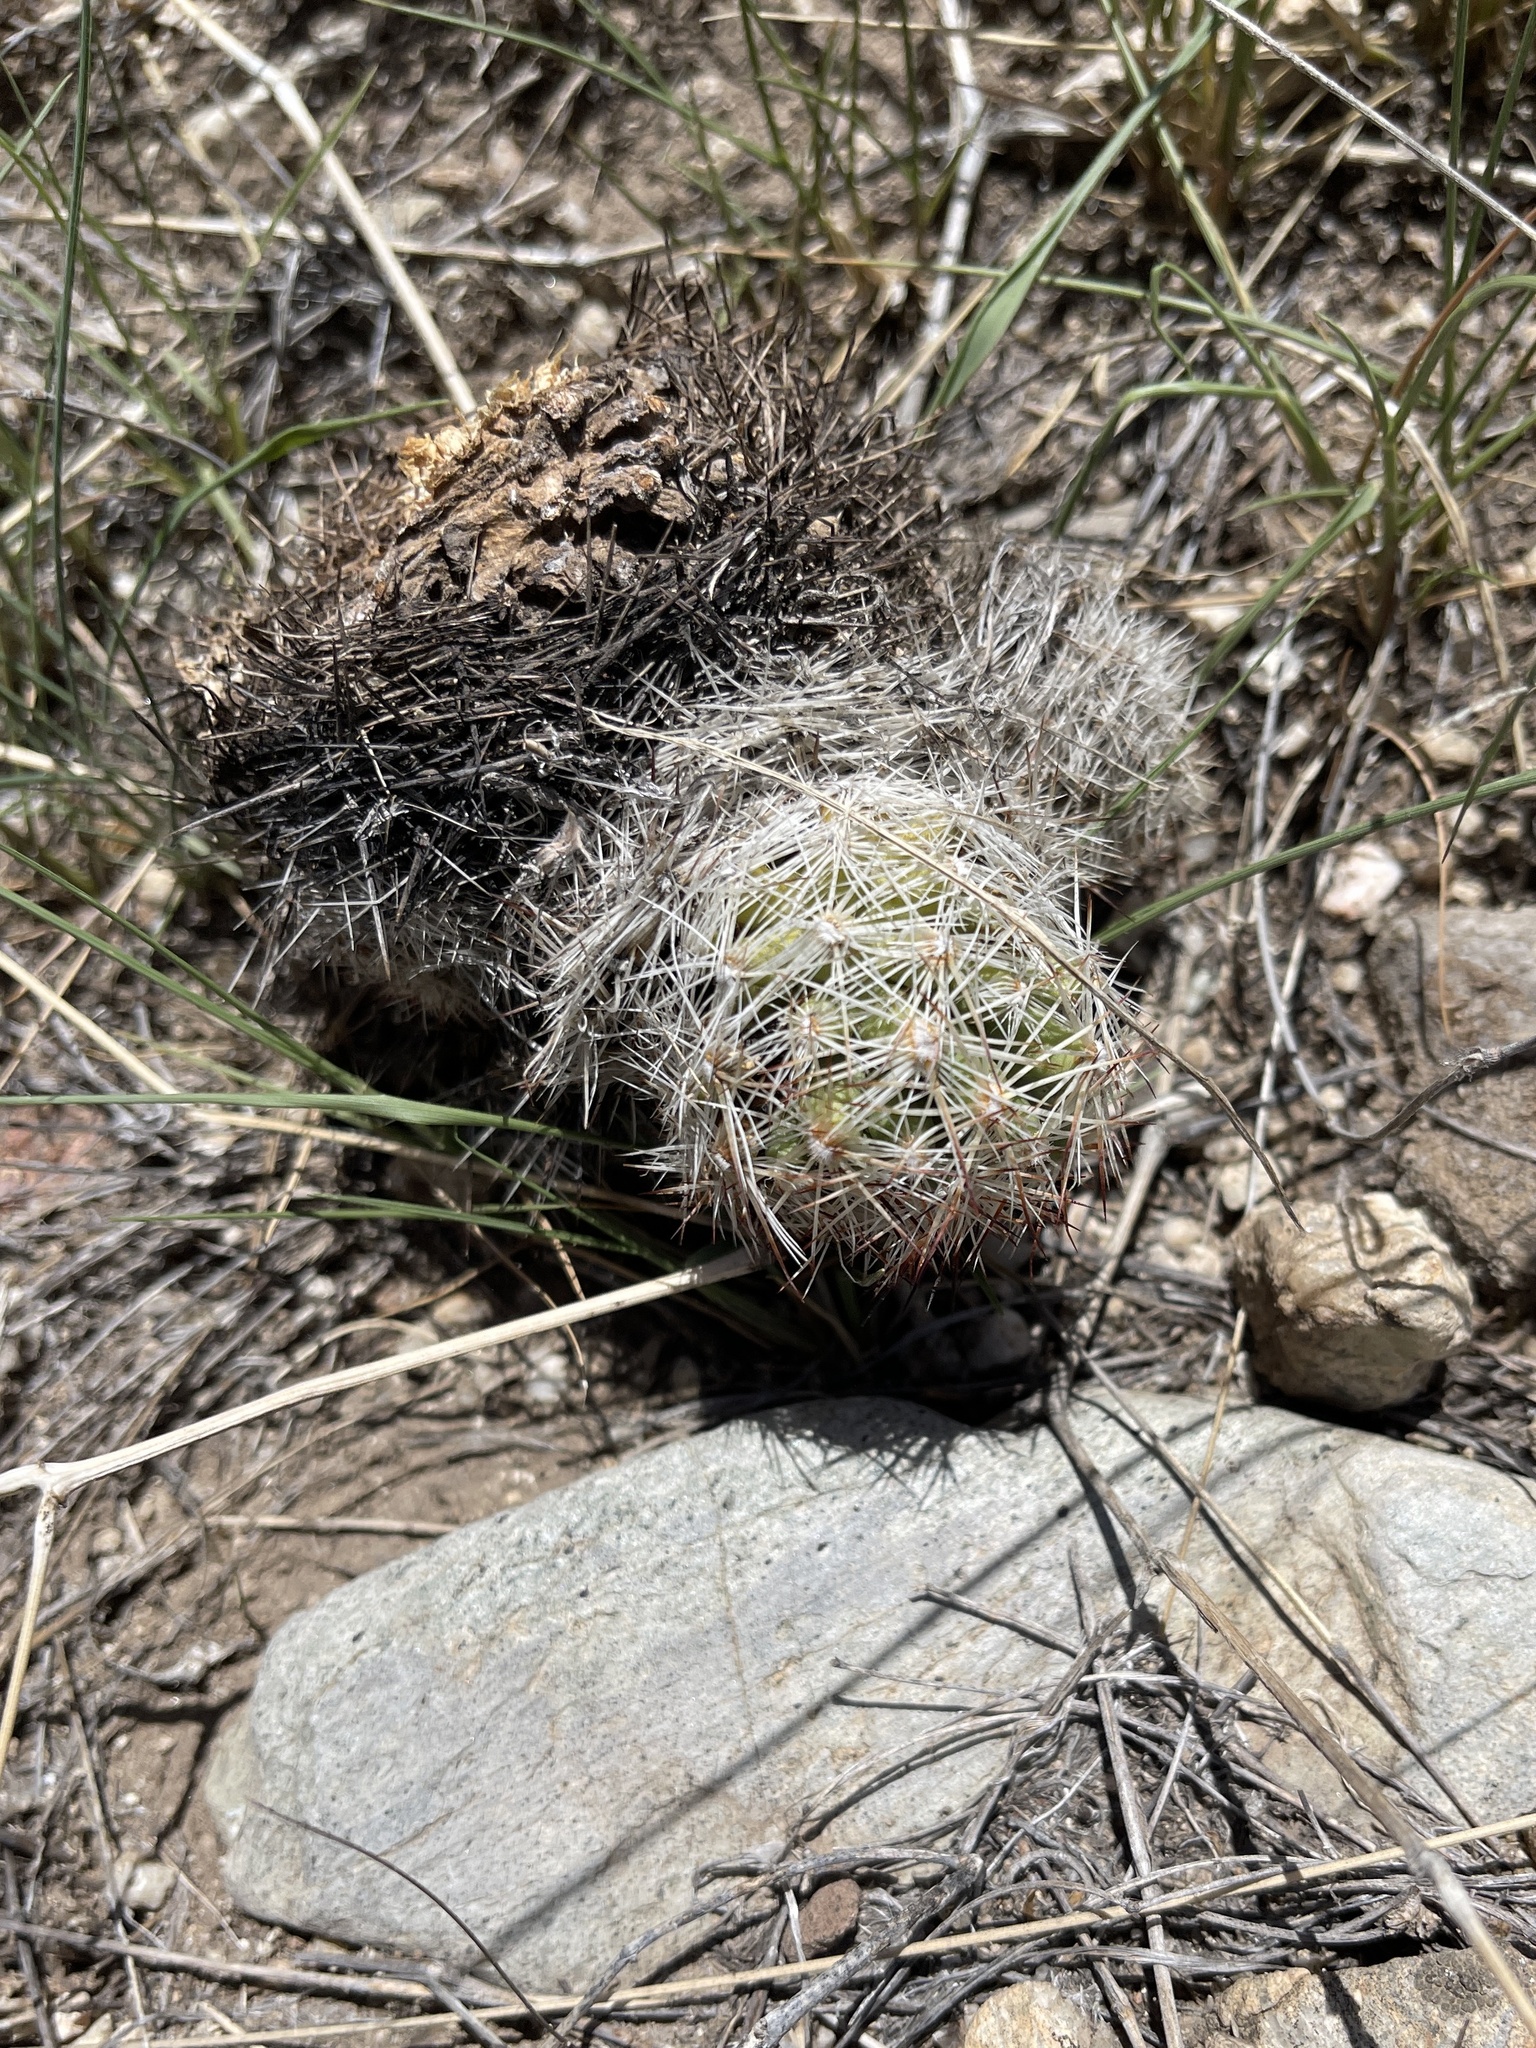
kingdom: Plantae
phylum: Tracheophyta
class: Magnoliopsida
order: Caryophyllales
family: Cactaceae
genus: Pelecyphora
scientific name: Pelecyphora vivipara
